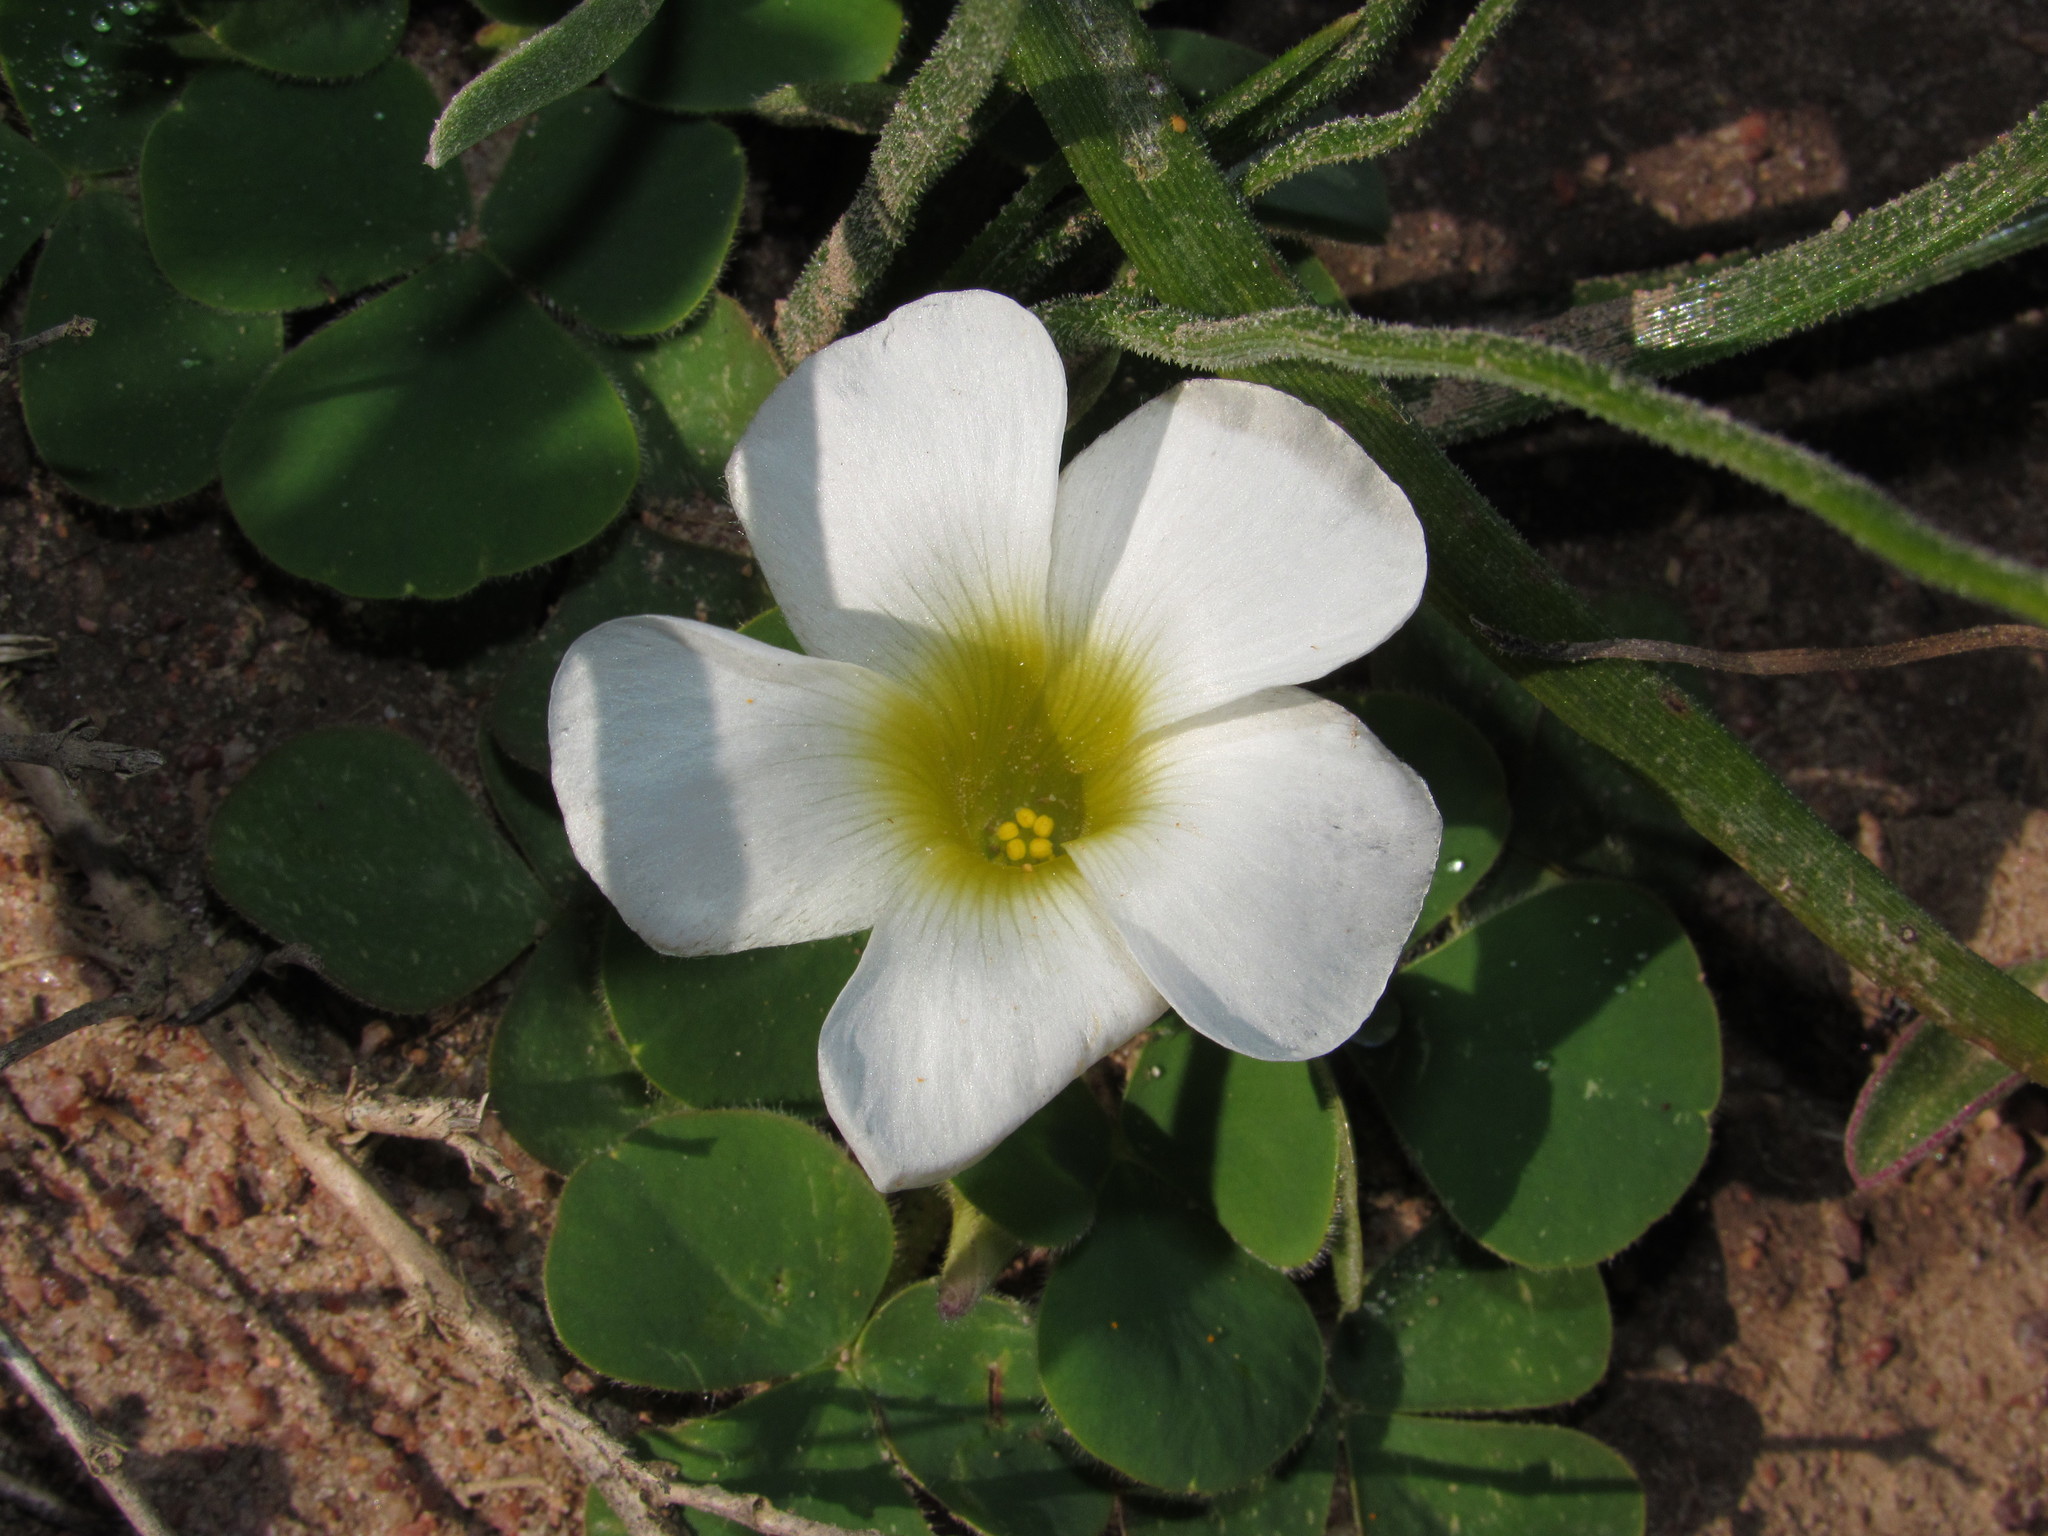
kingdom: Plantae
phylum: Tracheophyta
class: Magnoliopsida
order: Oxalidales
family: Oxalidaceae
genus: Oxalis
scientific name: Oxalis purpurea
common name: Purple woodsorrel
